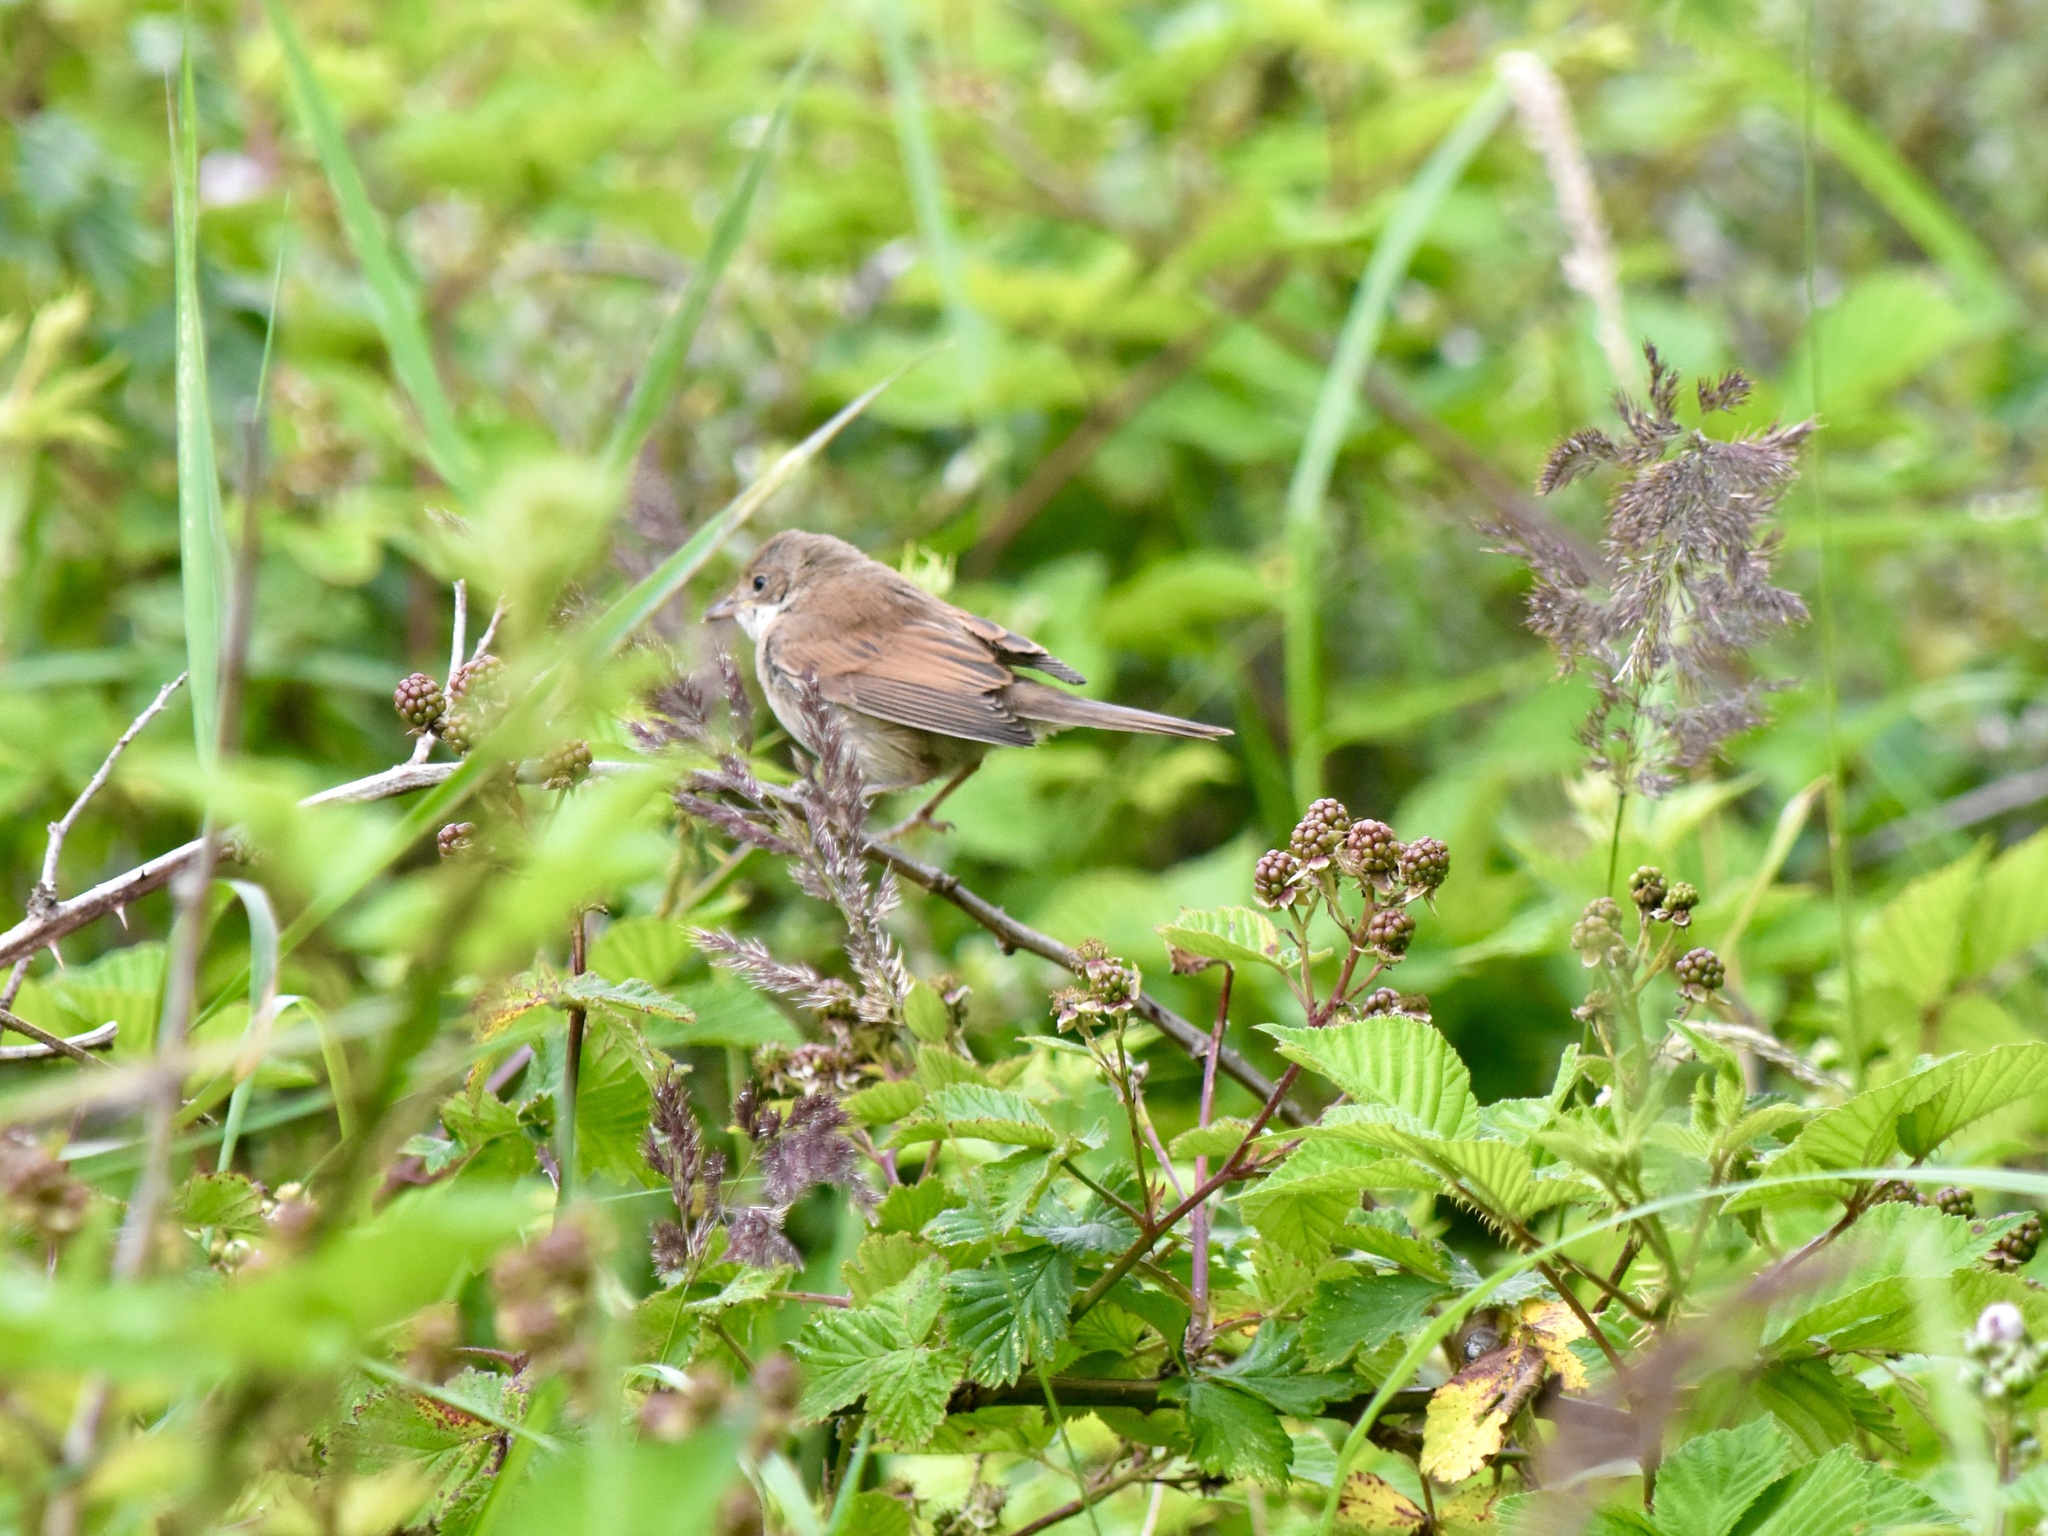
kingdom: Animalia
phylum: Chordata
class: Aves
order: Passeriformes
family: Sylviidae
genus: Sylvia
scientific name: Sylvia communis
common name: Common whitethroat
